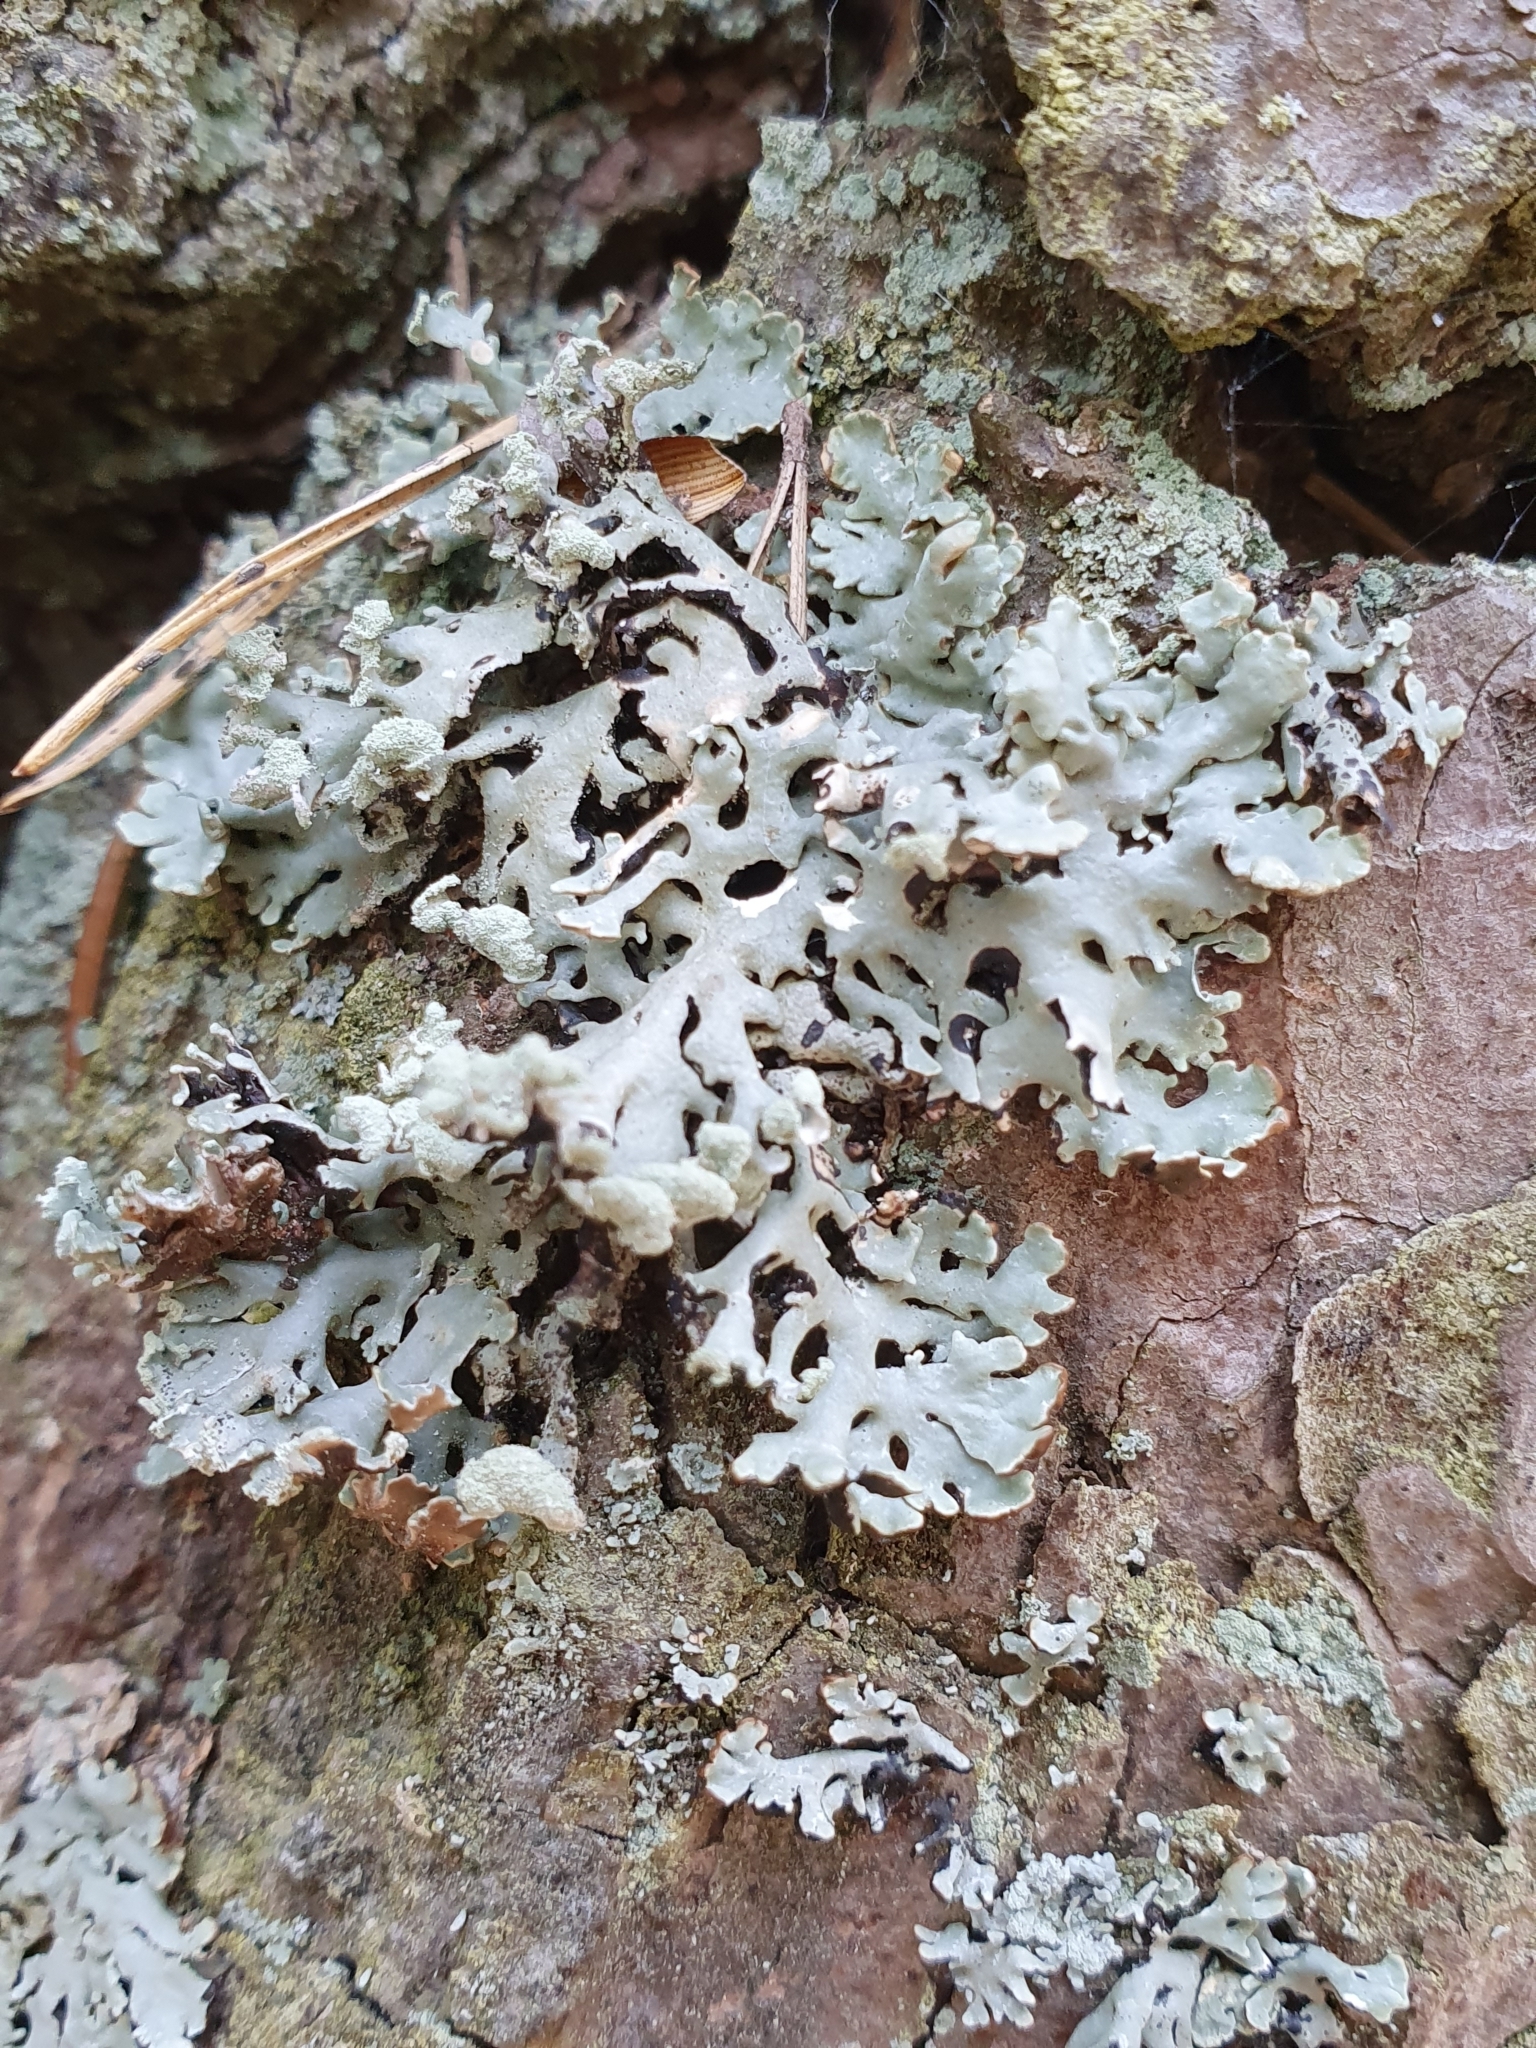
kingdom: Fungi
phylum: Ascomycota
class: Lecanoromycetes
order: Lecanorales
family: Parmeliaceae
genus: Hypogymnia
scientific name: Hypogymnia physodes
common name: Dark crottle
